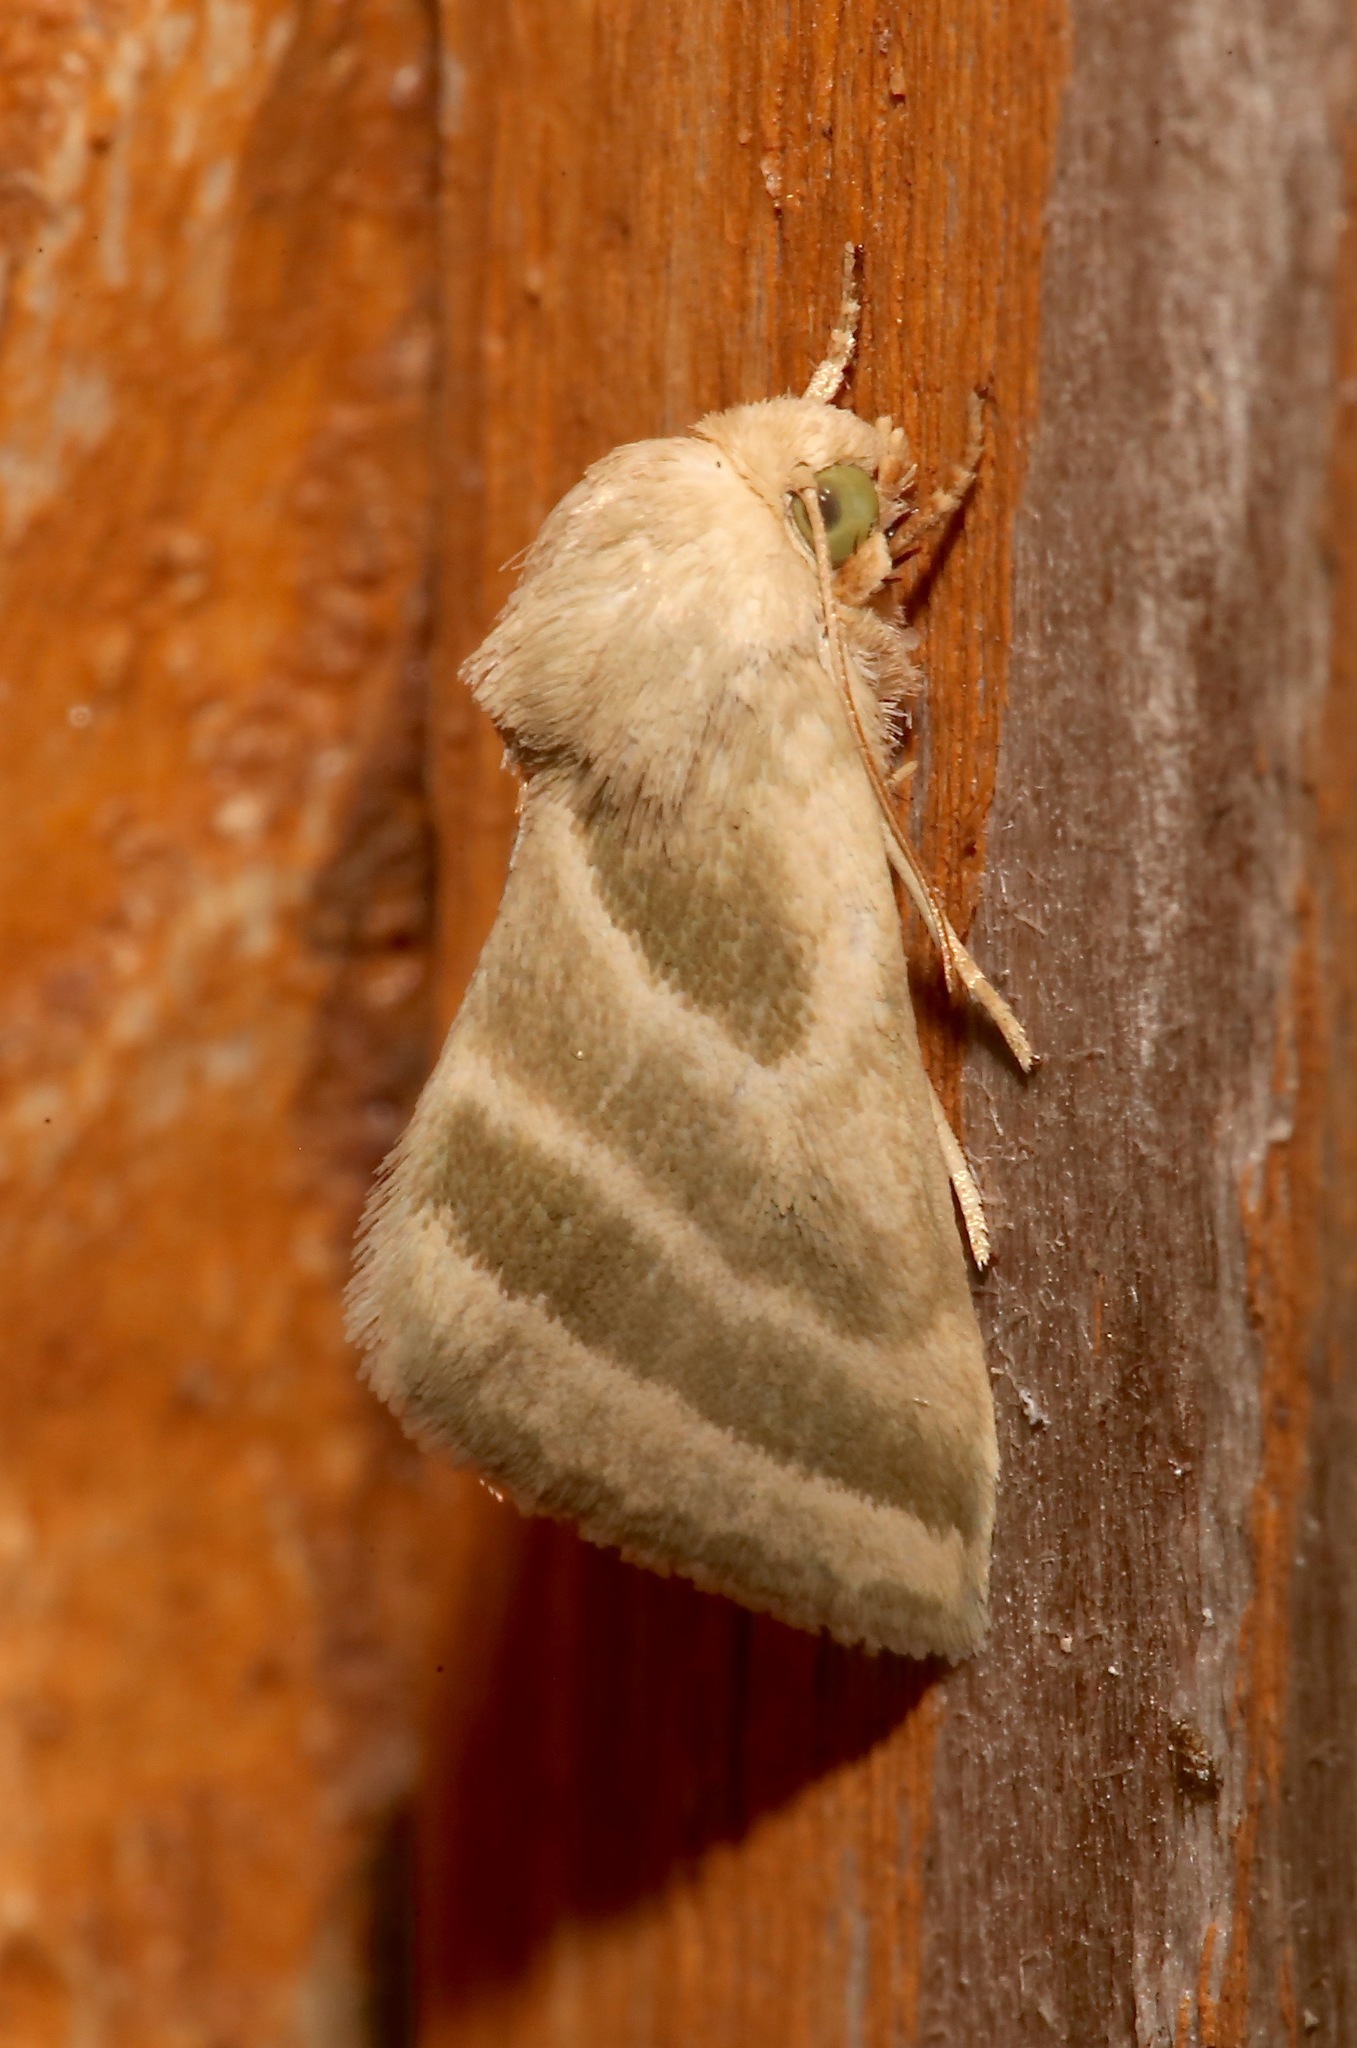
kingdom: Animalia
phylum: Arthropoda
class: Insecta
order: Lepidoptera
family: Noctuidae
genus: Schinia
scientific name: Schinia trifascia
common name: Three-lined flower moth
